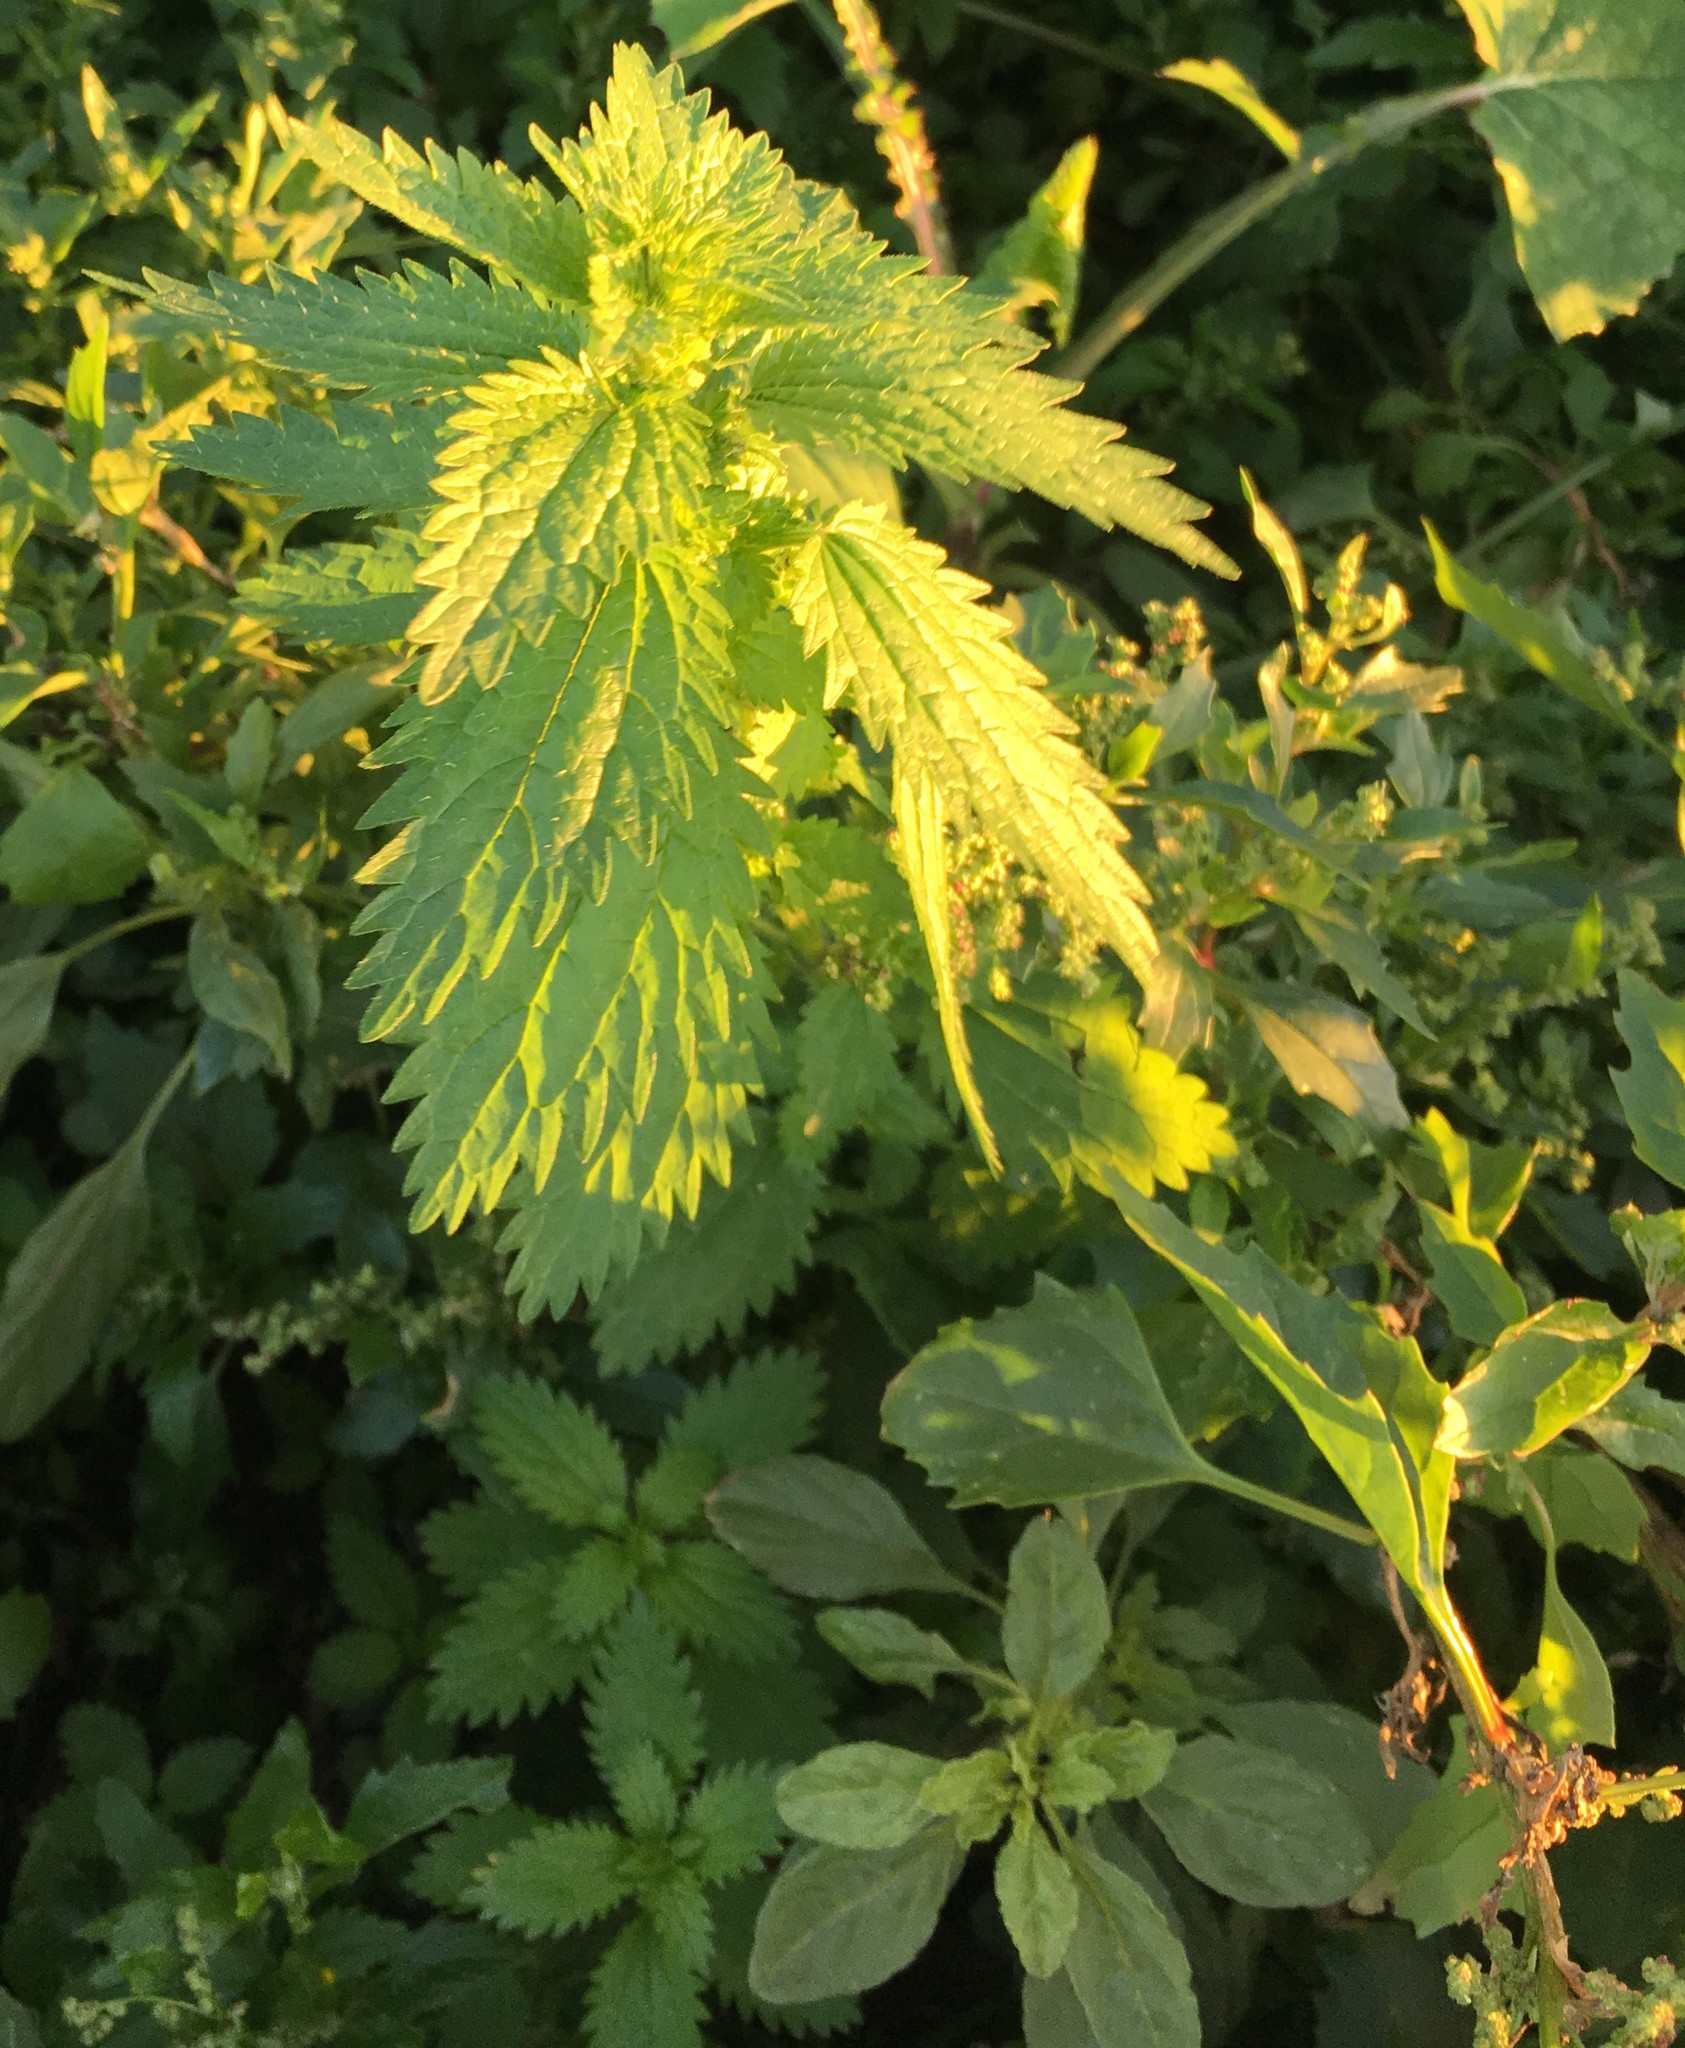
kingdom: Plantae
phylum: Tracheophyta
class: Magnoliopsida
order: Rosales
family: Urticaceae
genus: Urtica
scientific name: Urtica urens
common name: Dwarf nettle
